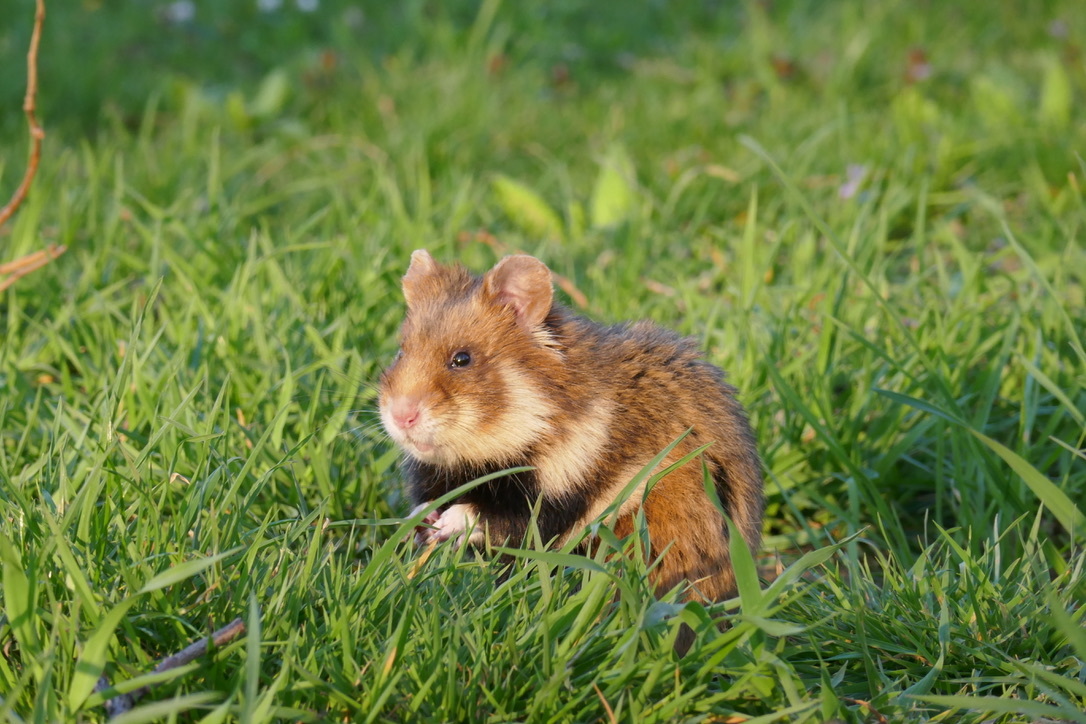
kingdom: Animalia
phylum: Chordata
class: Mammalia
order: Rodentia
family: Cricetidae
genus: Cricetus
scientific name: Cricetus cricetus
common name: Common hamster
